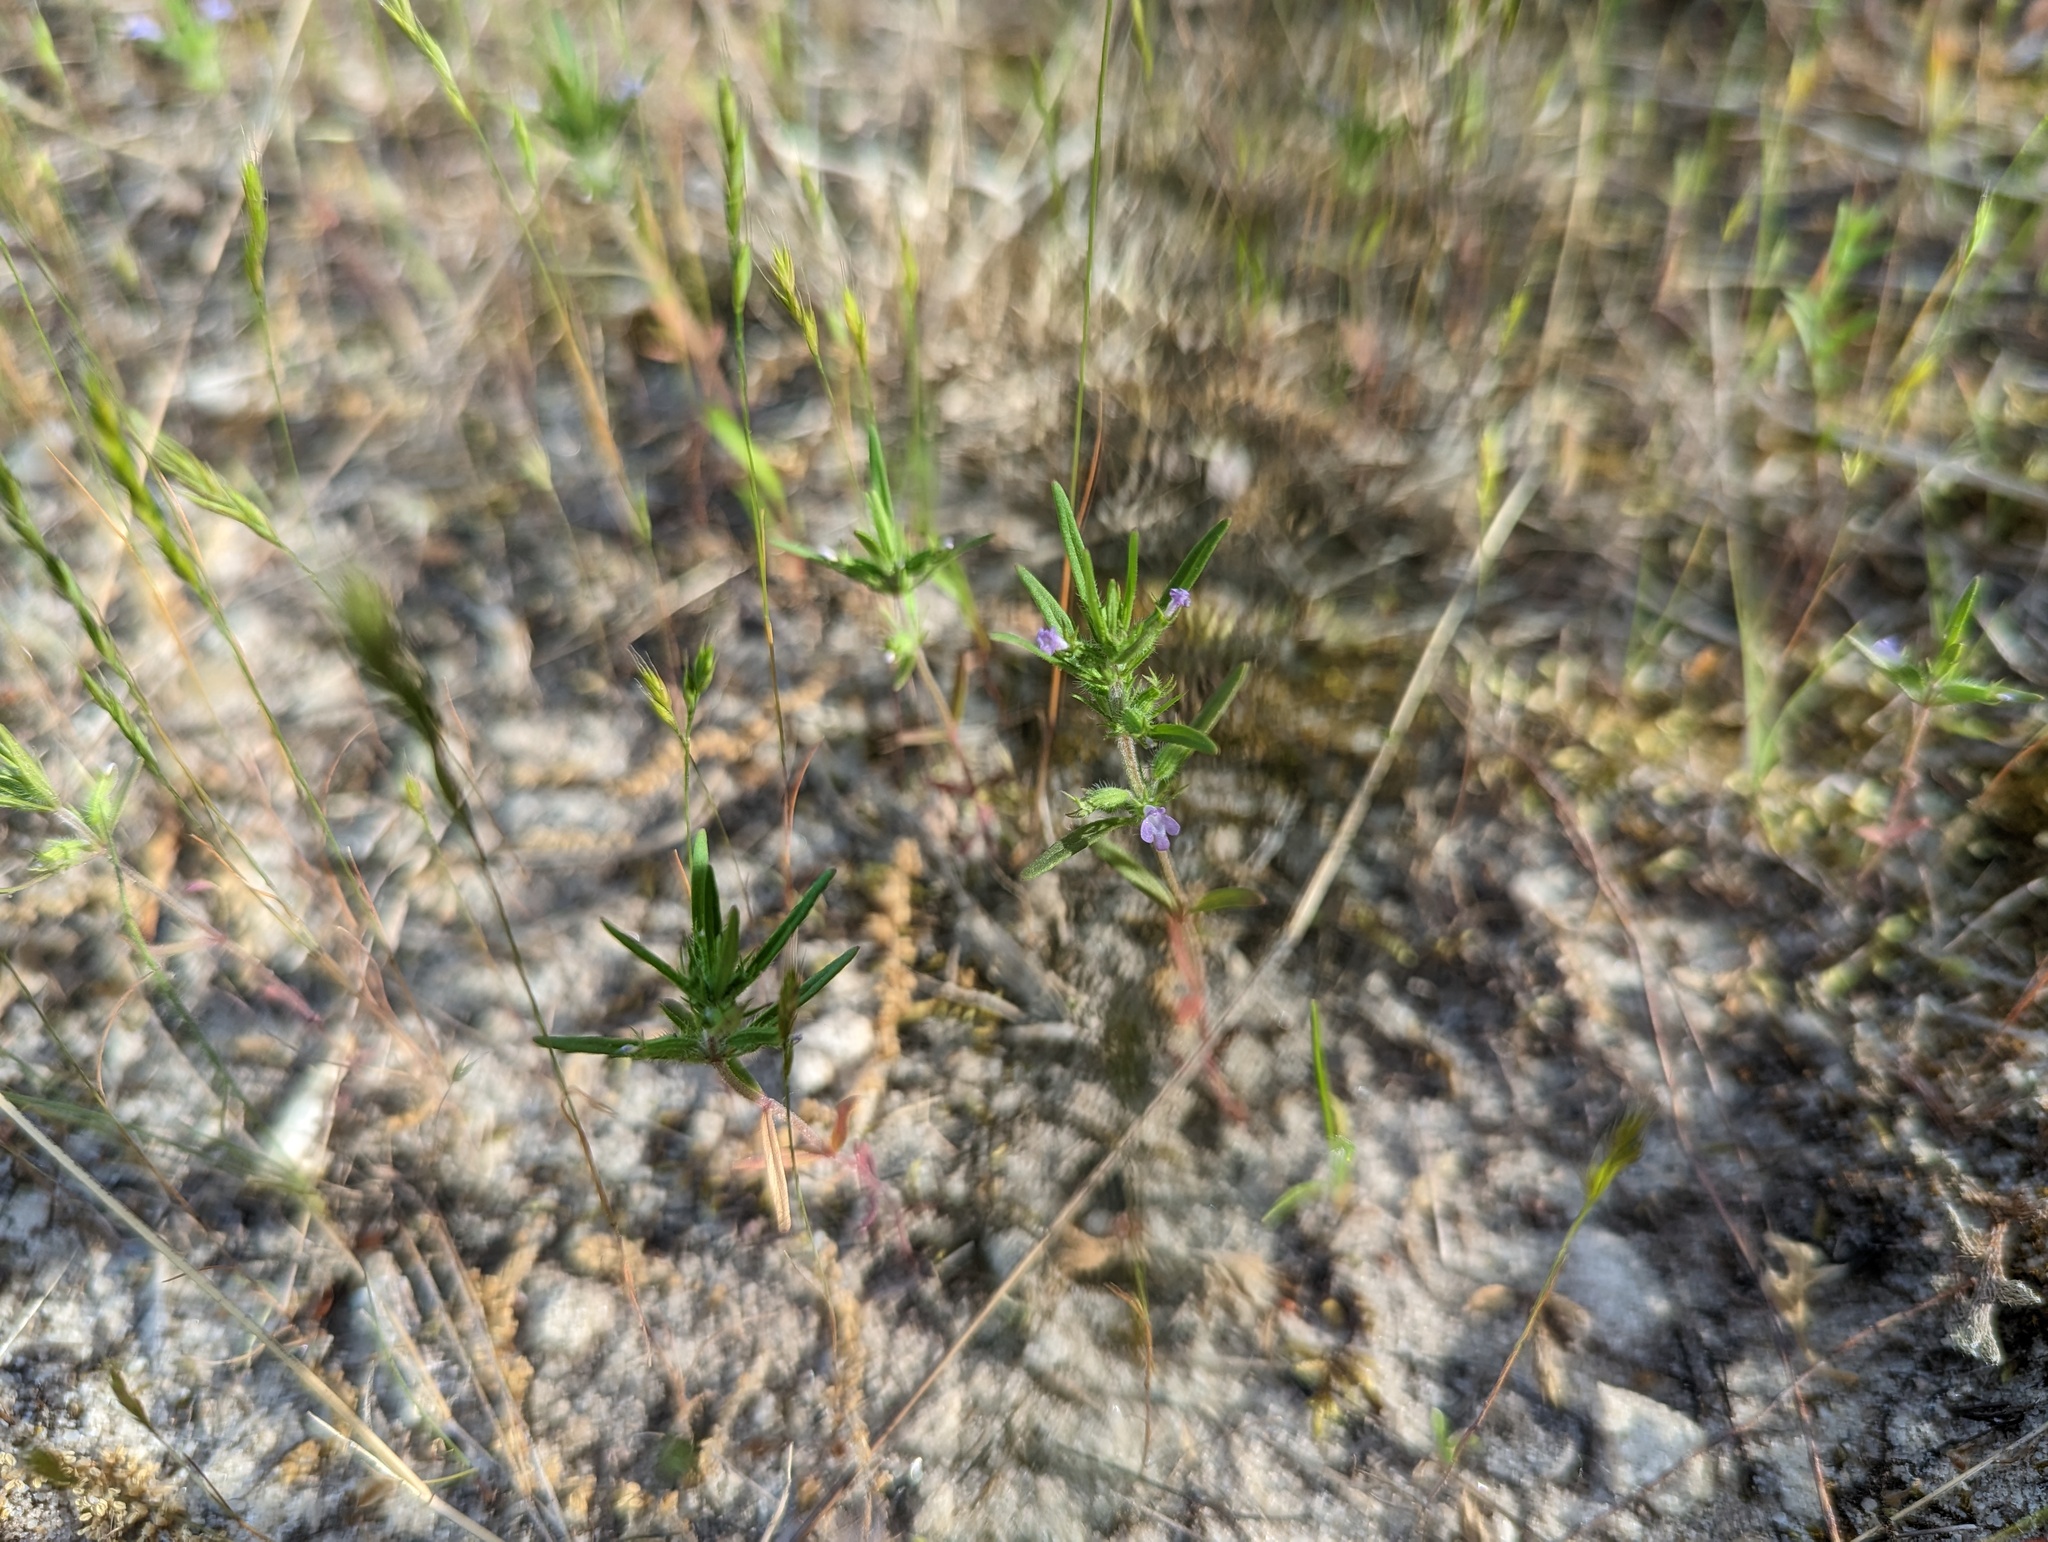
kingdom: Plantae
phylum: Tracheophyta
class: Magnoliopsida
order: Lamiales
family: Lamiaceae
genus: Hedeoma
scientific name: Hedeoma hispida
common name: Mock pennyroyal
